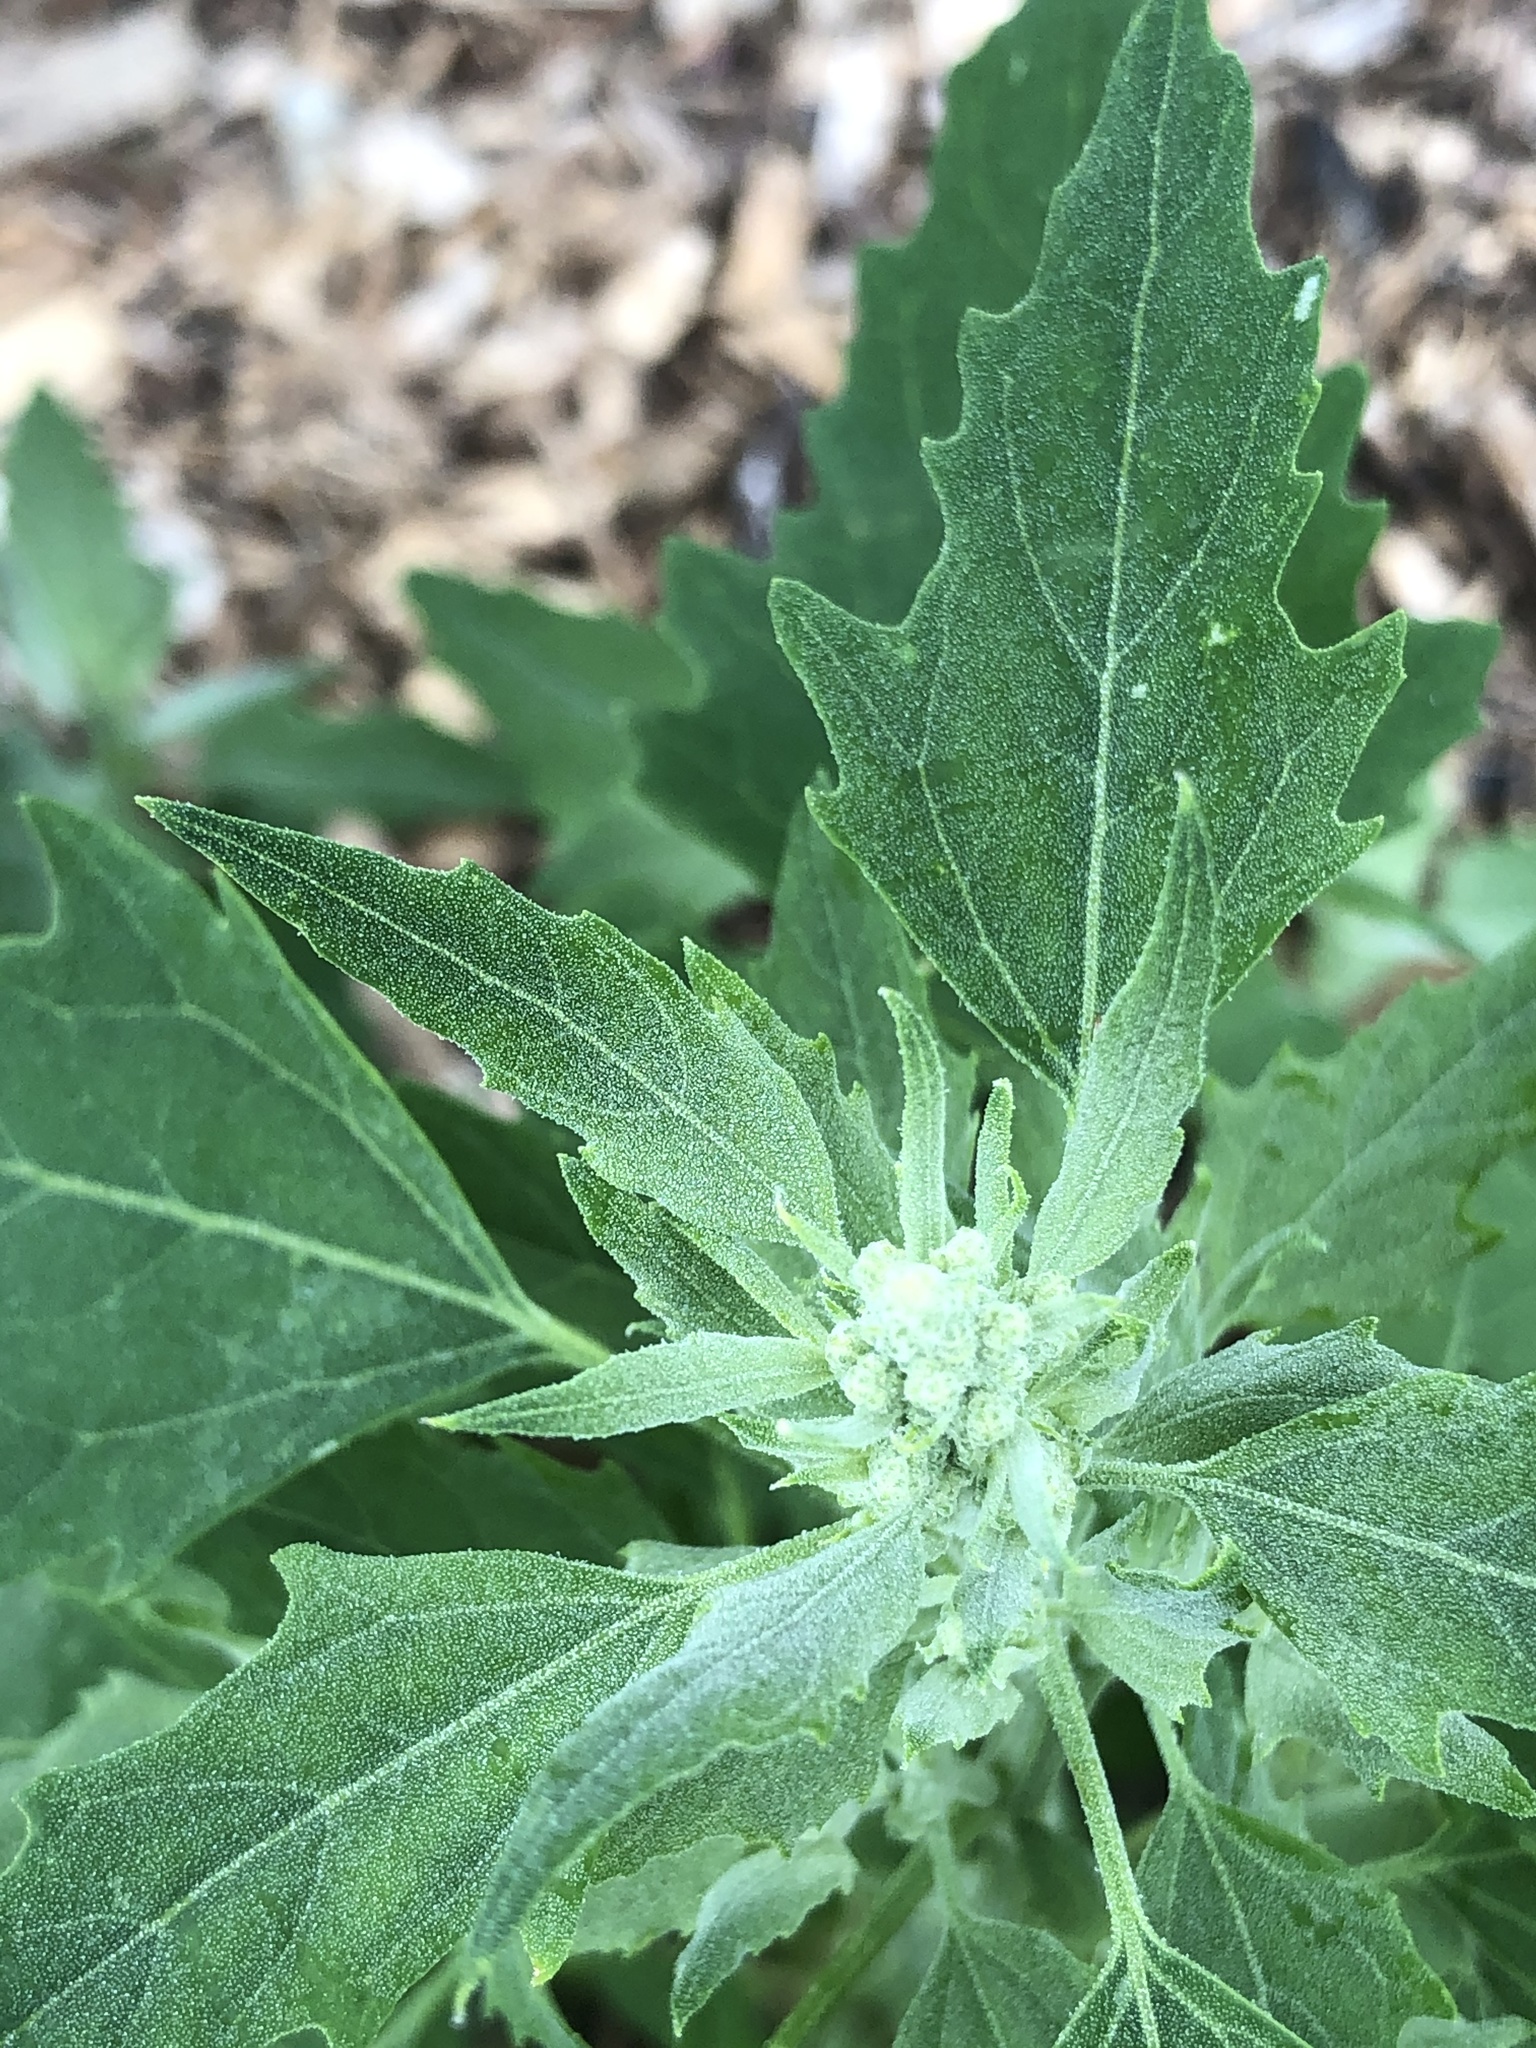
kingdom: Plantae
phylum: Tracheophyta
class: Magnoliopsida
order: Caryophyllales
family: Amaranthaceae
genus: Chenopodium
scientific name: Chenopodium album
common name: Fat-hen
